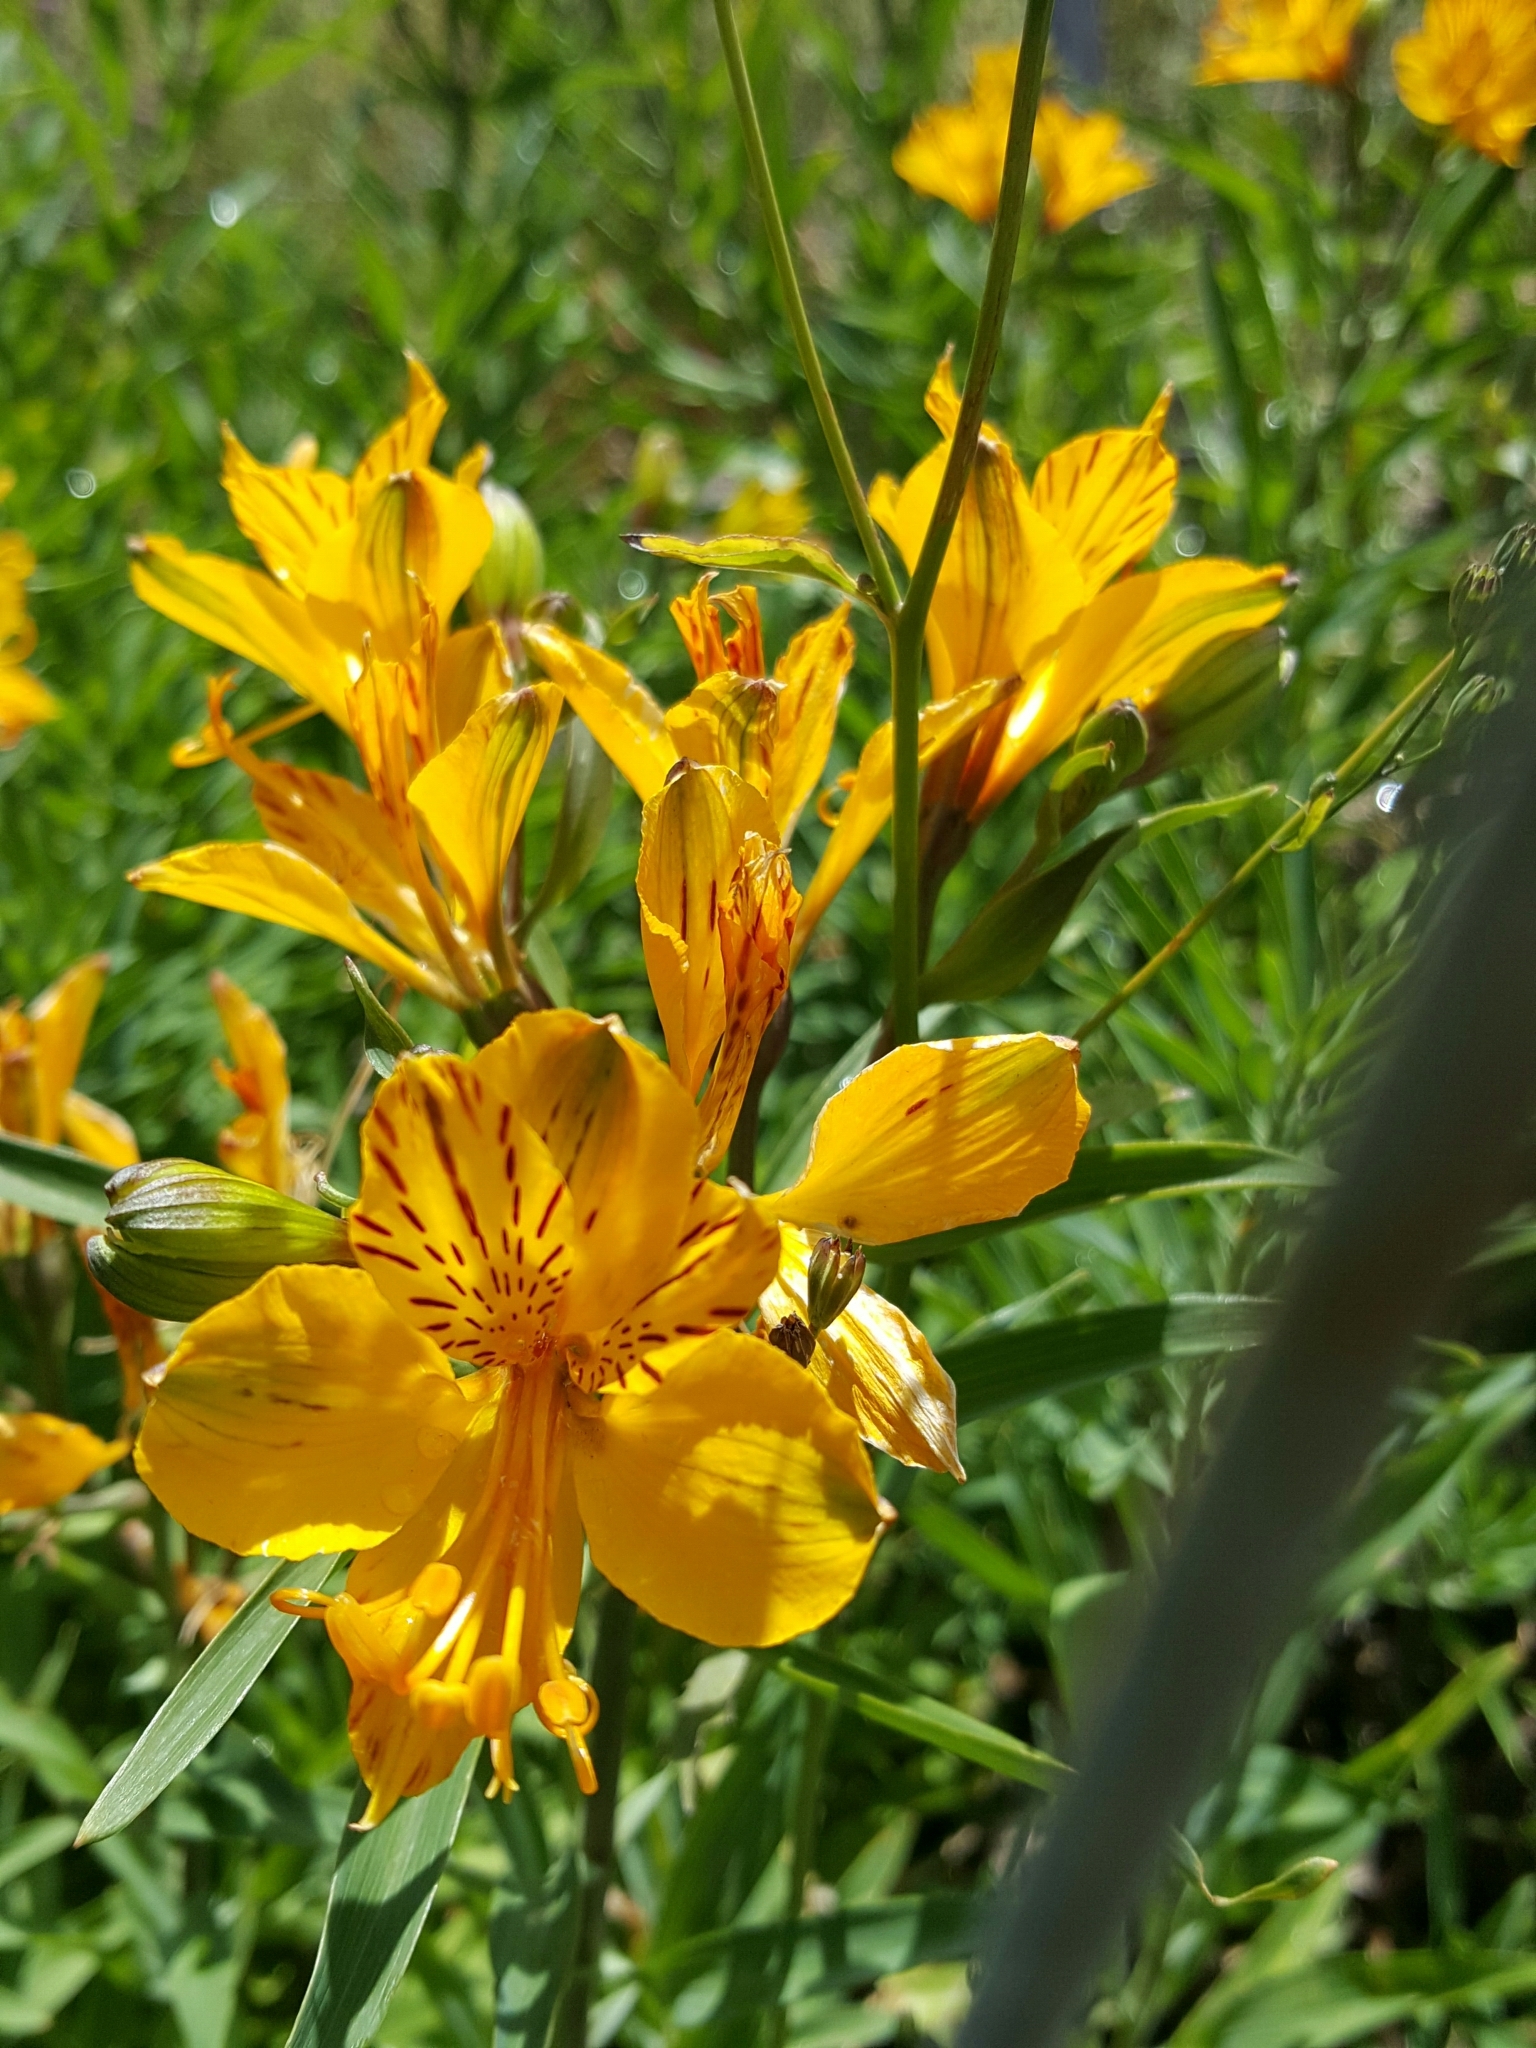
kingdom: Plantae
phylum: Tracheophyta
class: Liliopsida
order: Liliales
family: Alstroemeriaceae
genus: Alstroemeria
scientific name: Alstroemeria aurea
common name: Peruvian lily
